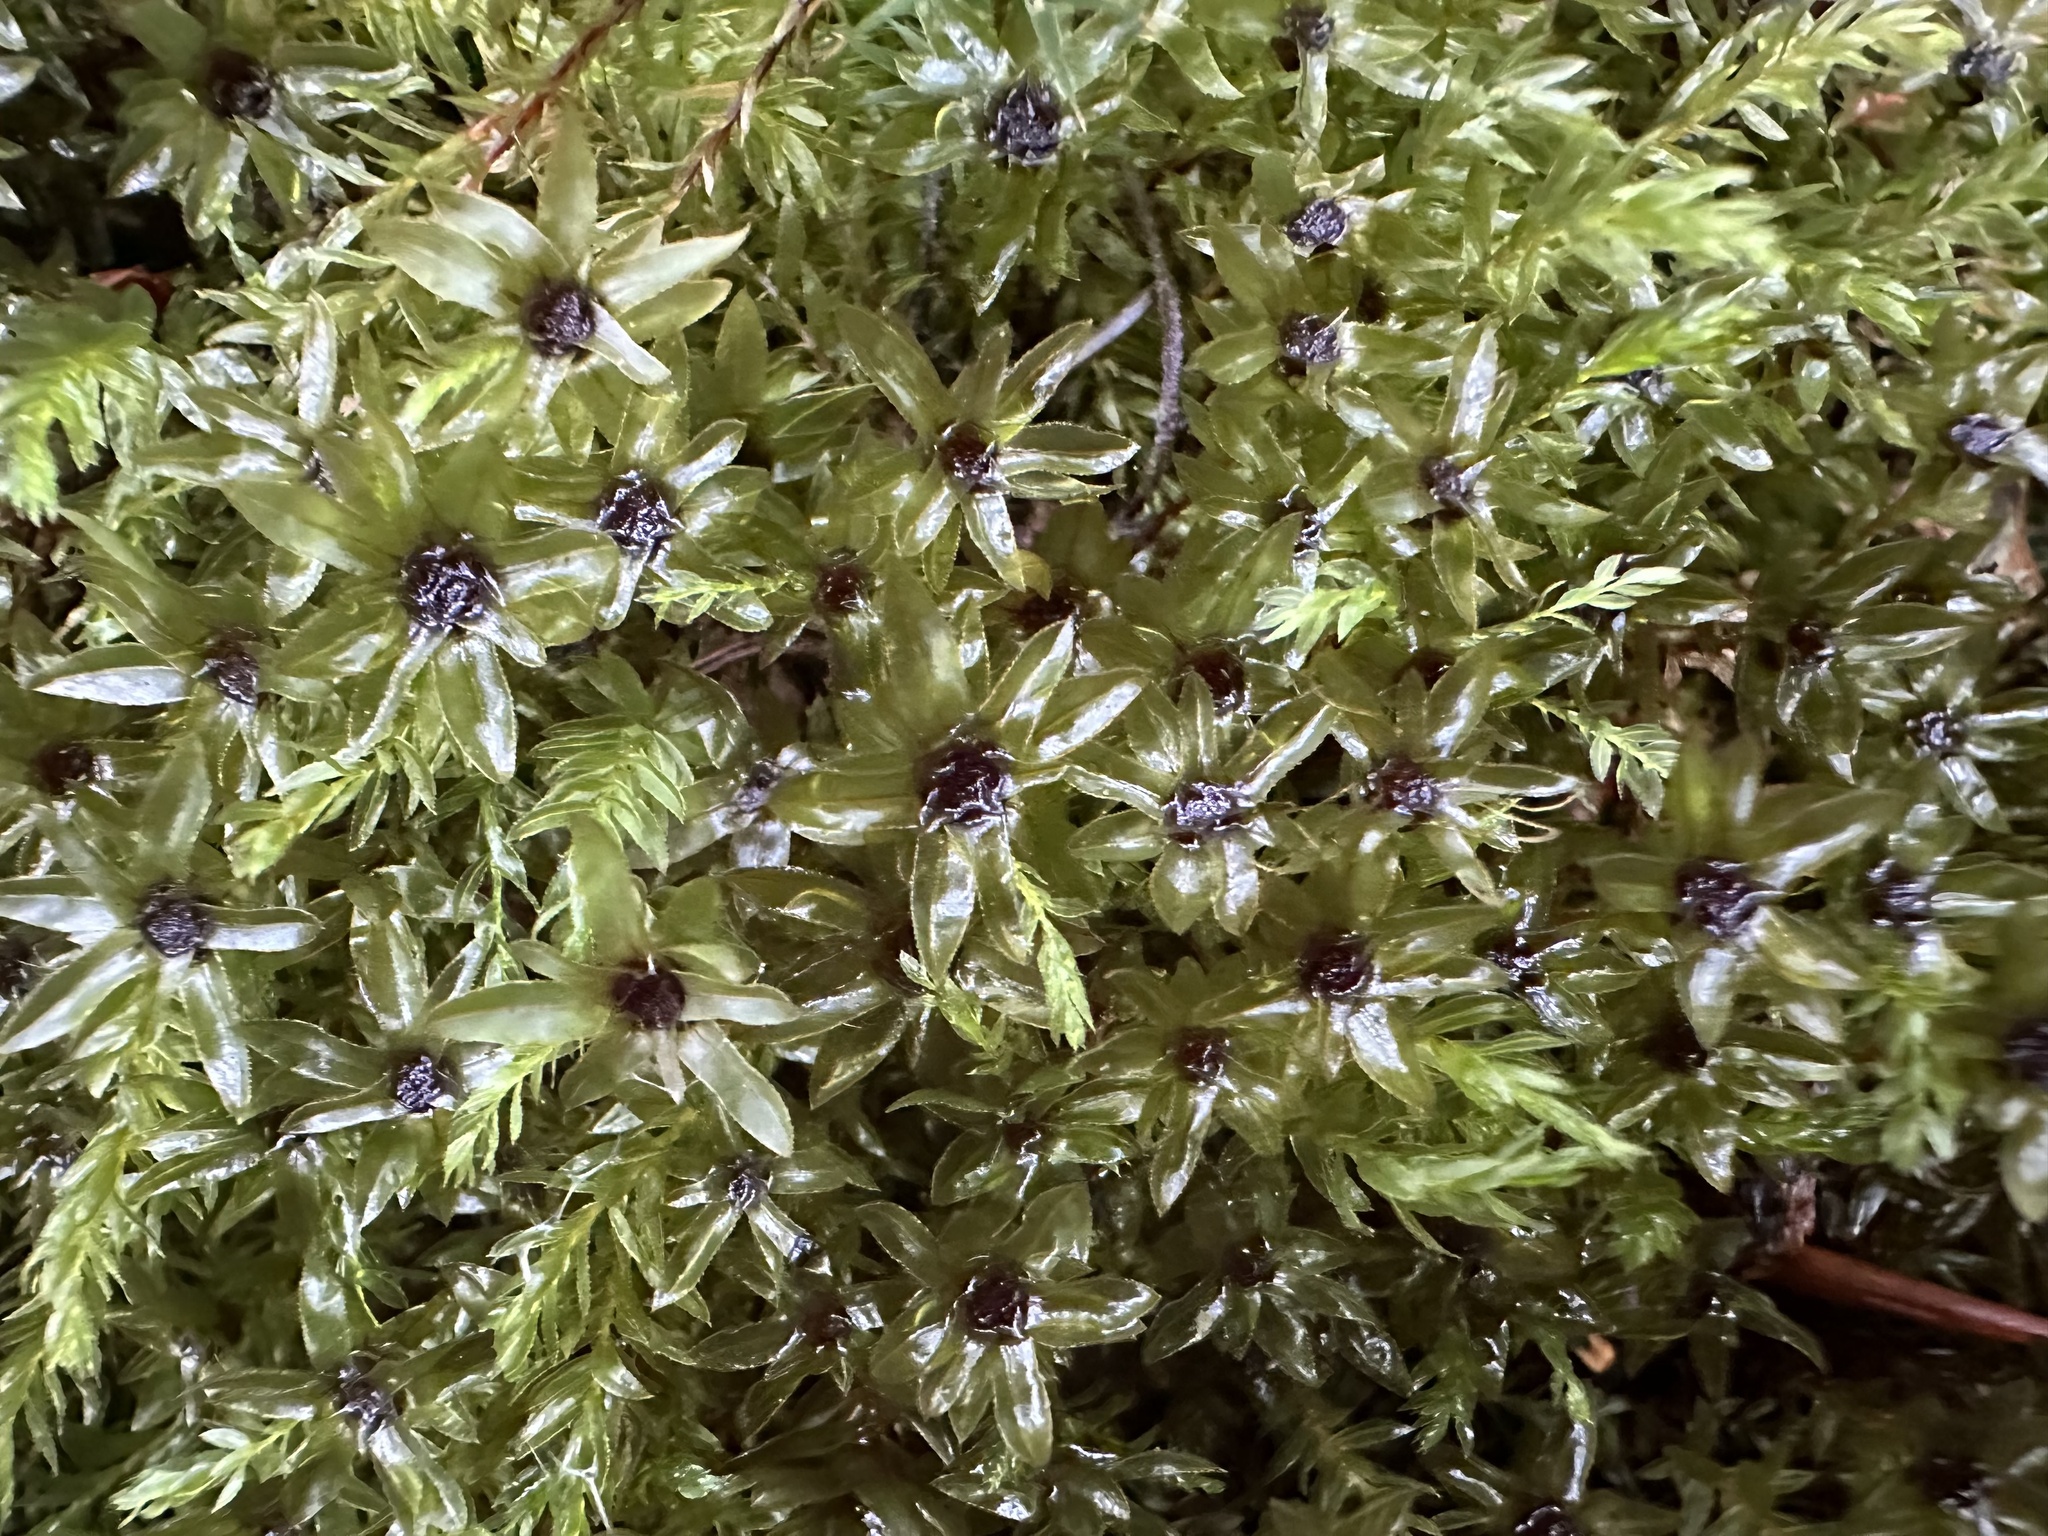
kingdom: Plantae
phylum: Bryophyta
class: Bryopsida
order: Bryales
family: Mniaceae
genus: Mnium
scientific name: Mnium hornum
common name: Swan's-neck leafy moss
